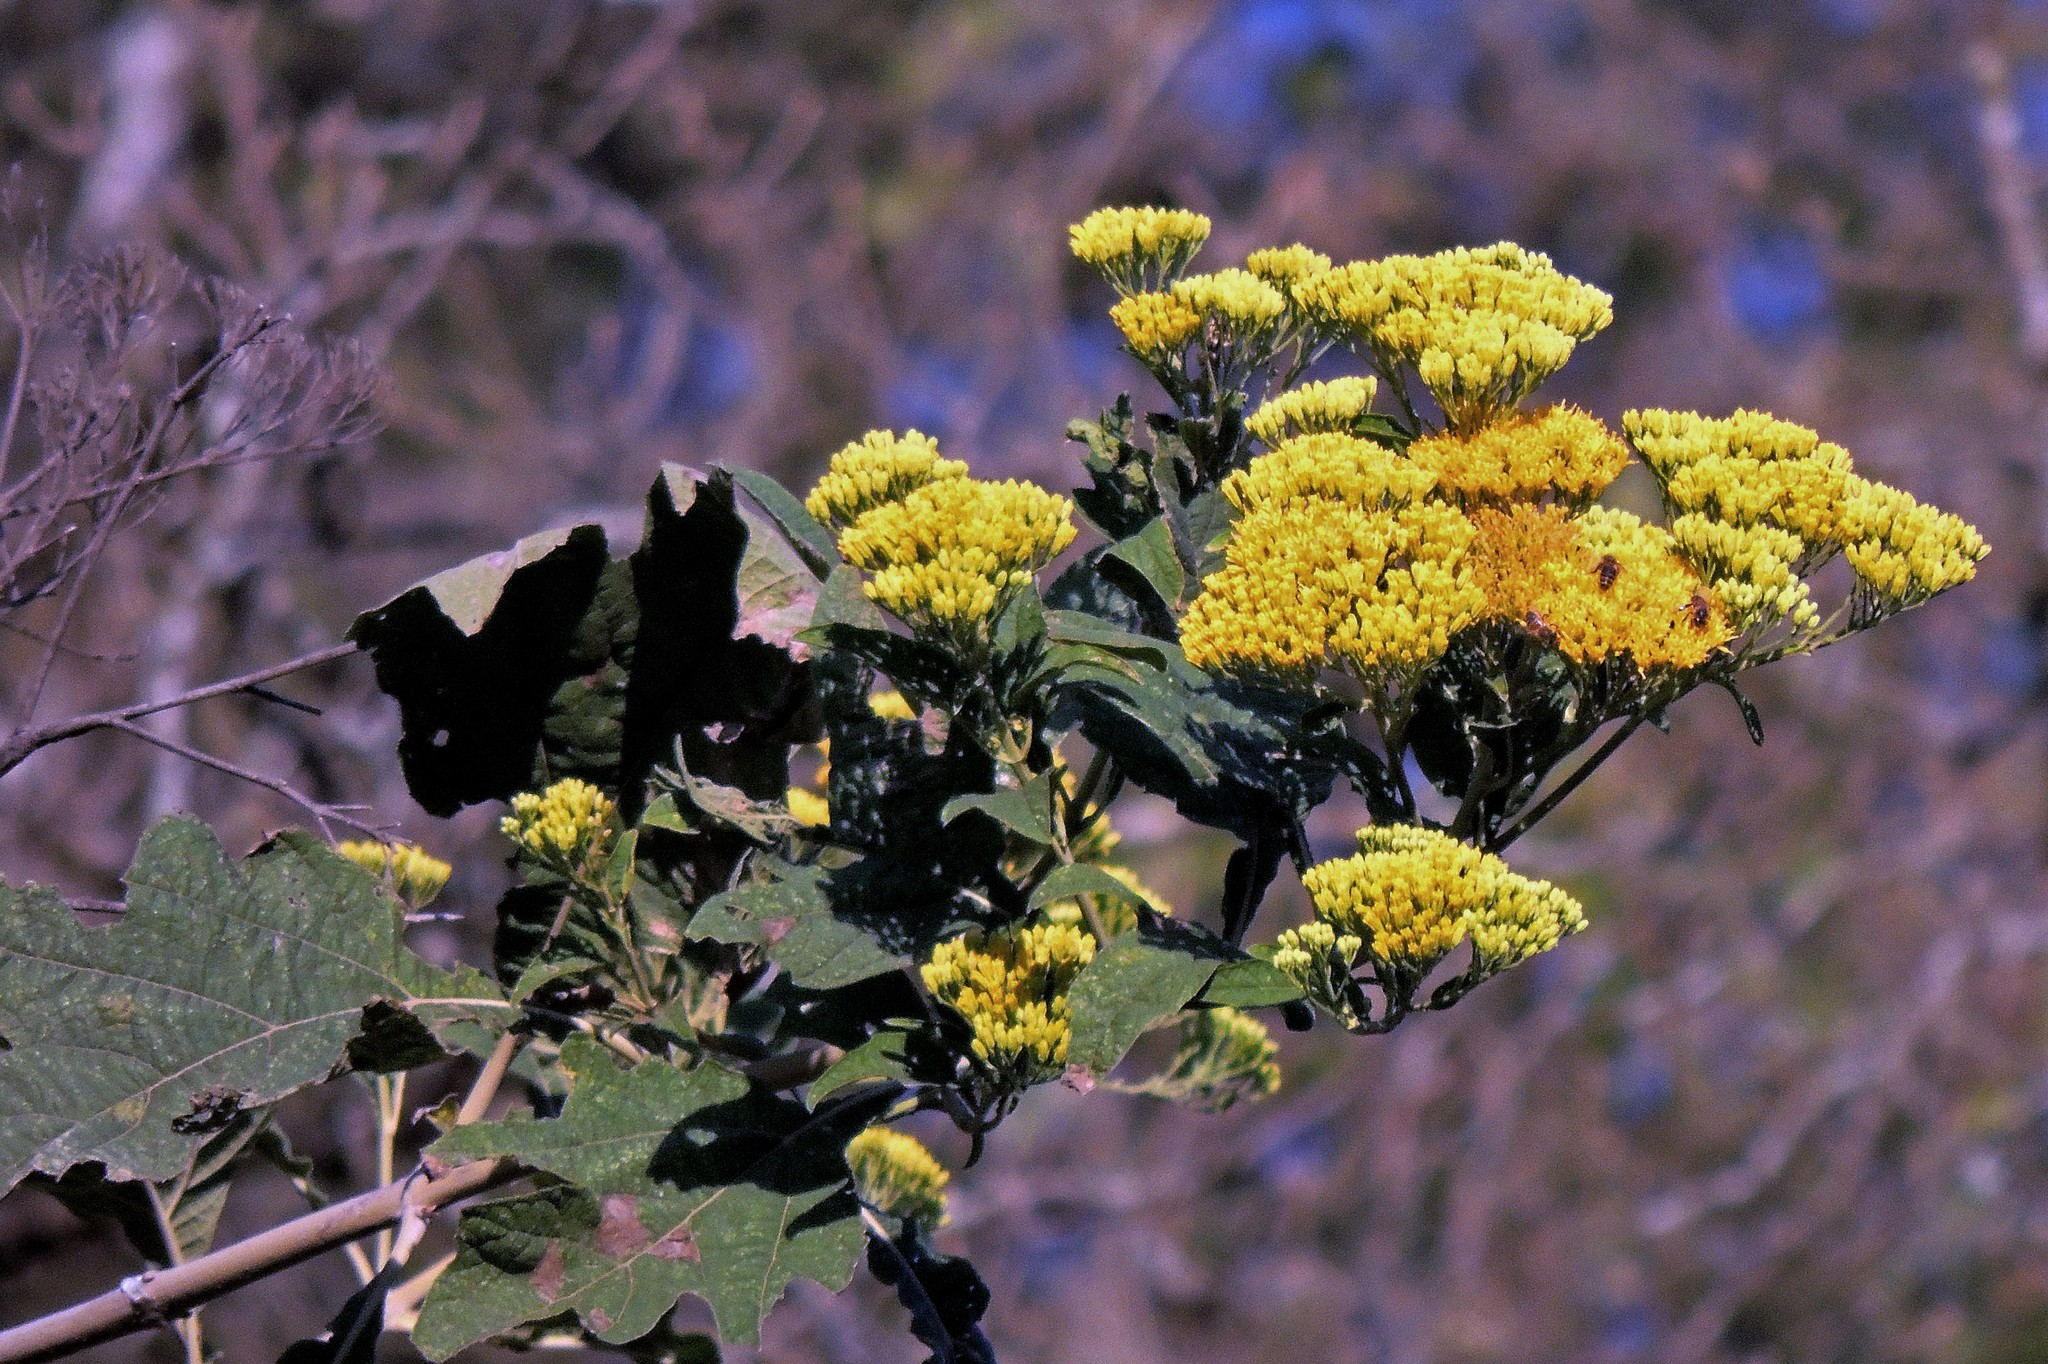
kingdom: Plantae
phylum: Tracheophyta
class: Magnoliopsida
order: Asterales
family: Asteraceae
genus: Verbesina
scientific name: Verbesina lilloi
